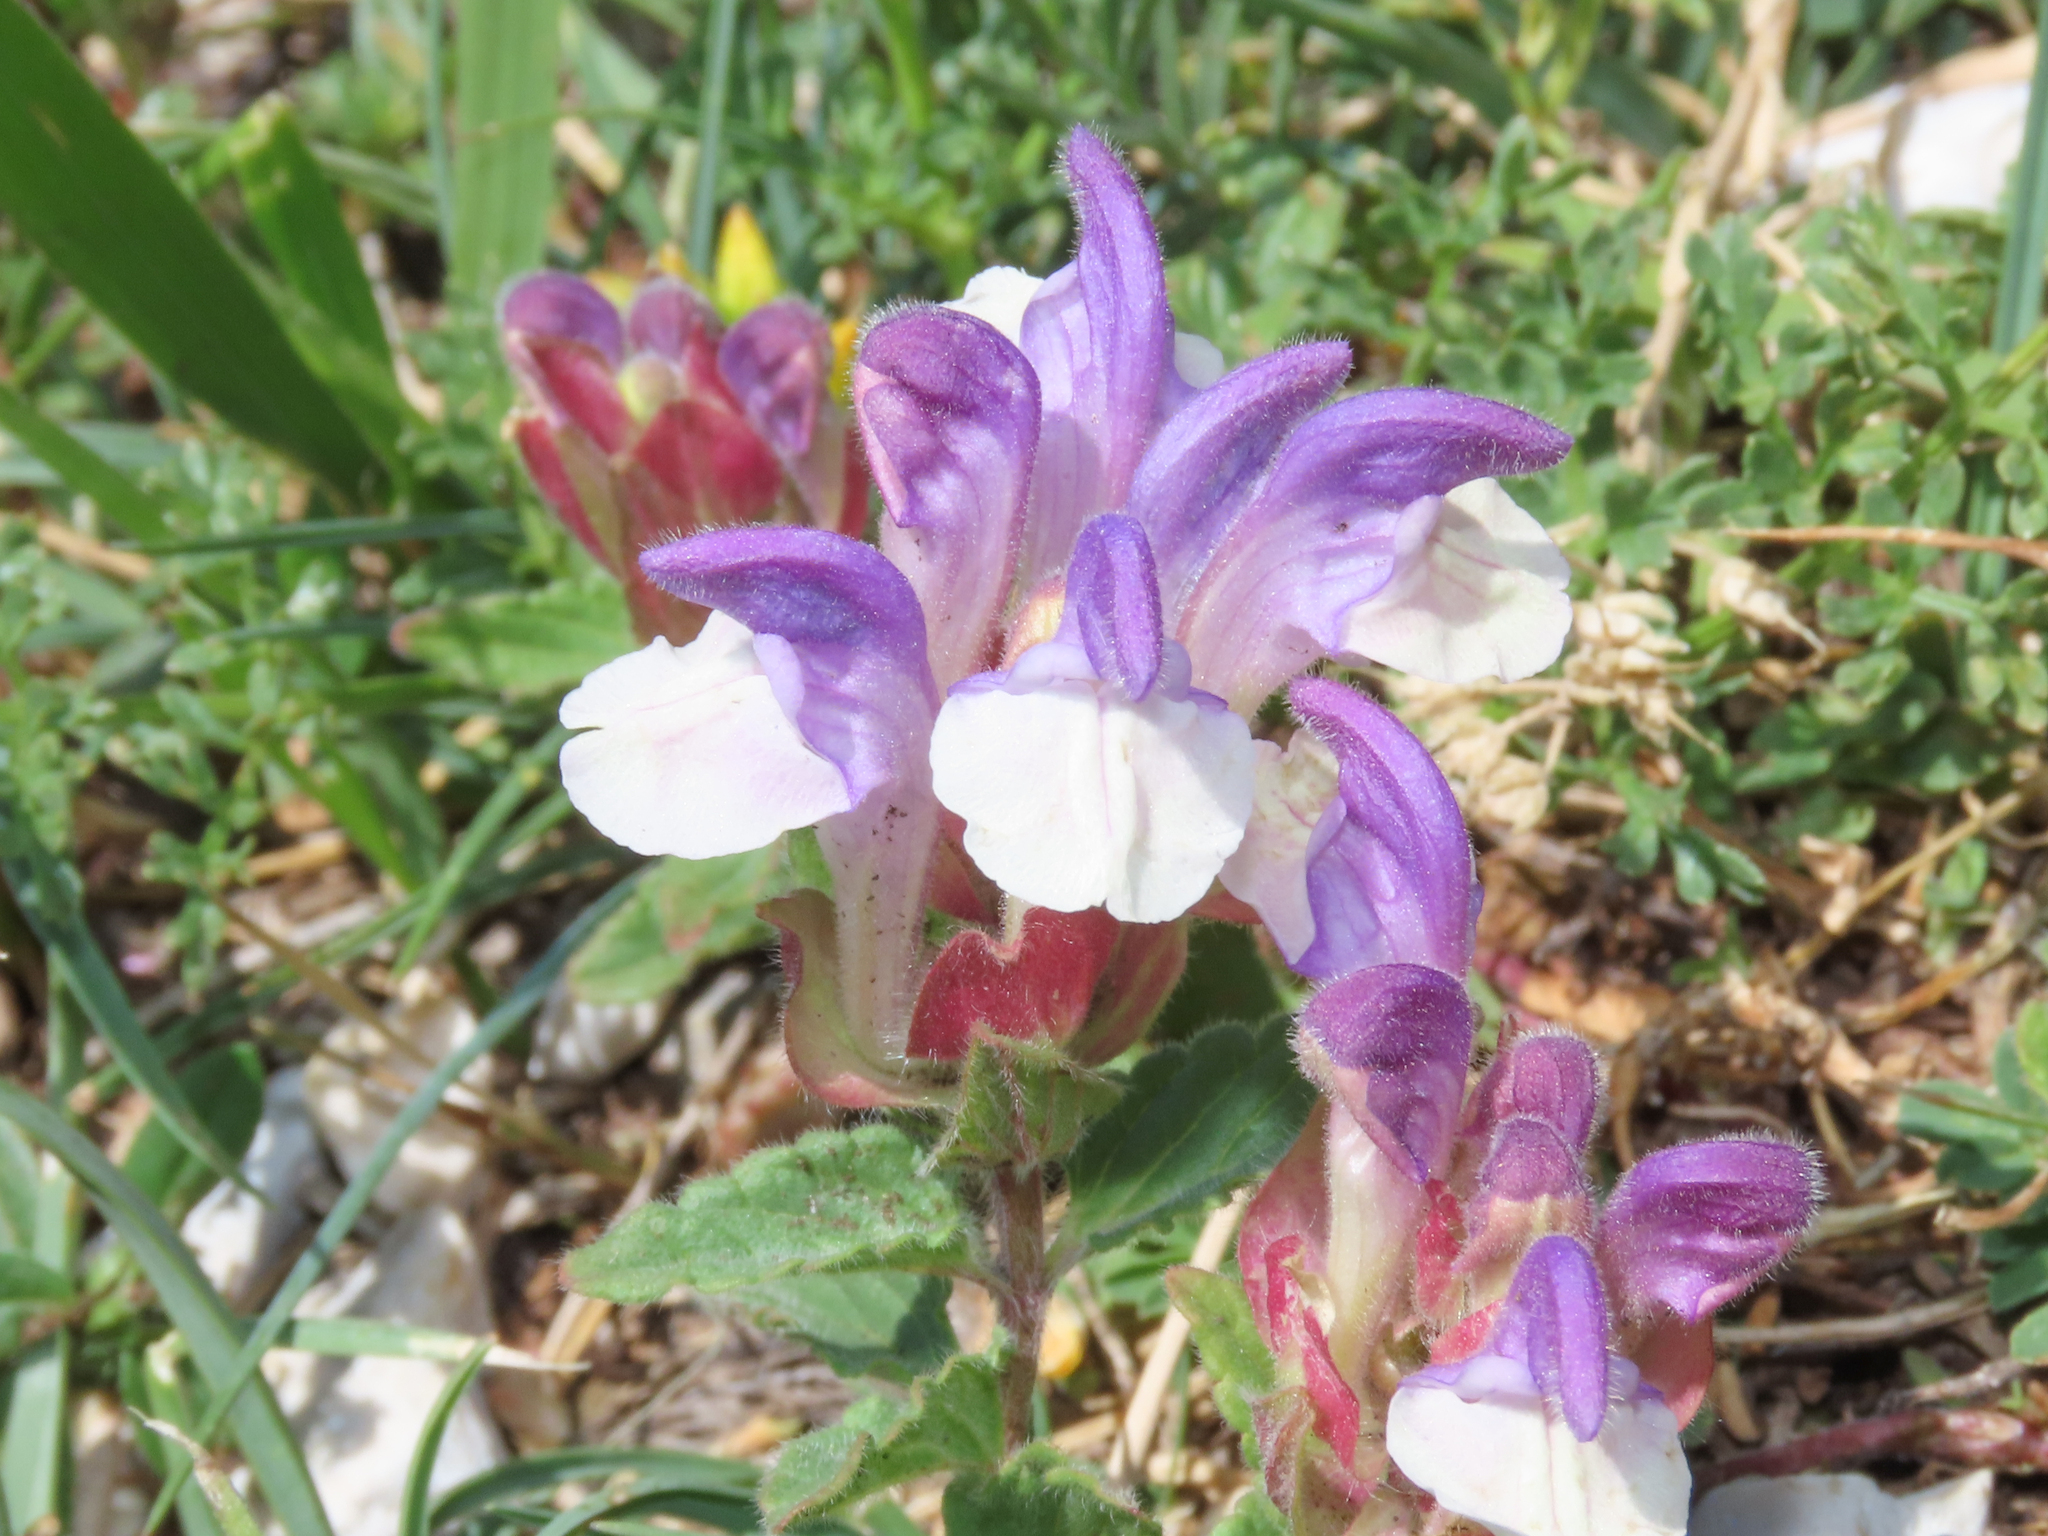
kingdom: Plantae
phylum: Tracheophyta
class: Magnoliopsida
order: Lamiales
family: Lamiaceae
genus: Scutellaria
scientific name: Scutellaria alpina
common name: Alpine scullcap
